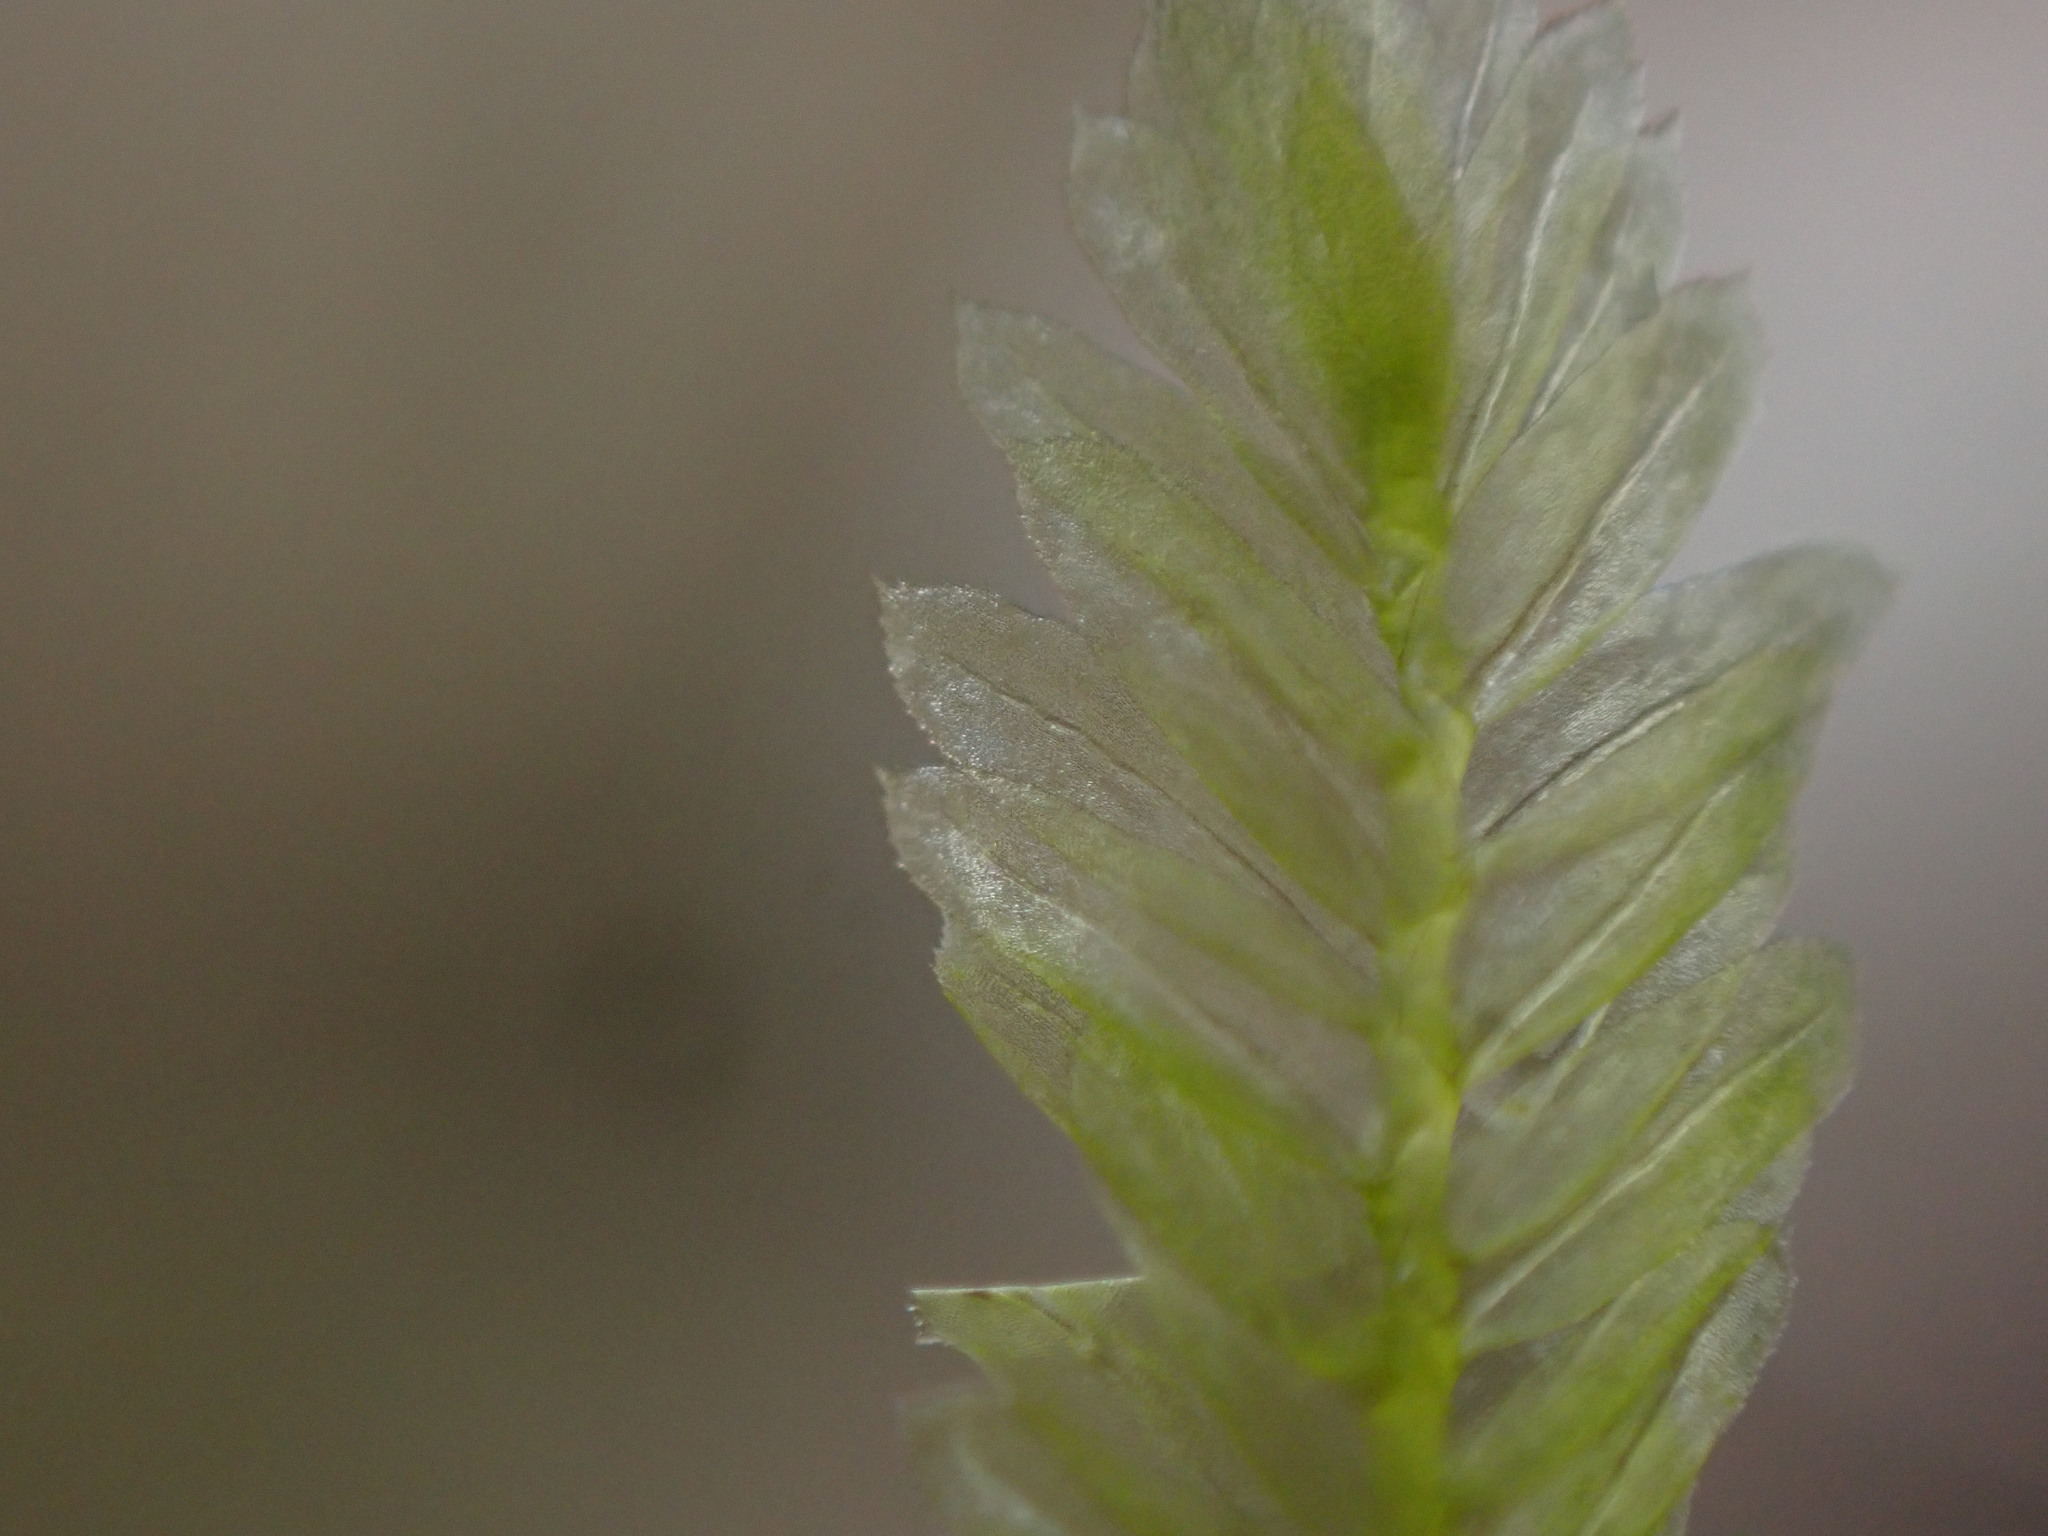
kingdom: Plantae
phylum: Bryophyta
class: Bryopsida
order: Hypnales
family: Neckeraceae
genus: Dannorrisia
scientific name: Dannorrisia bigelovii
